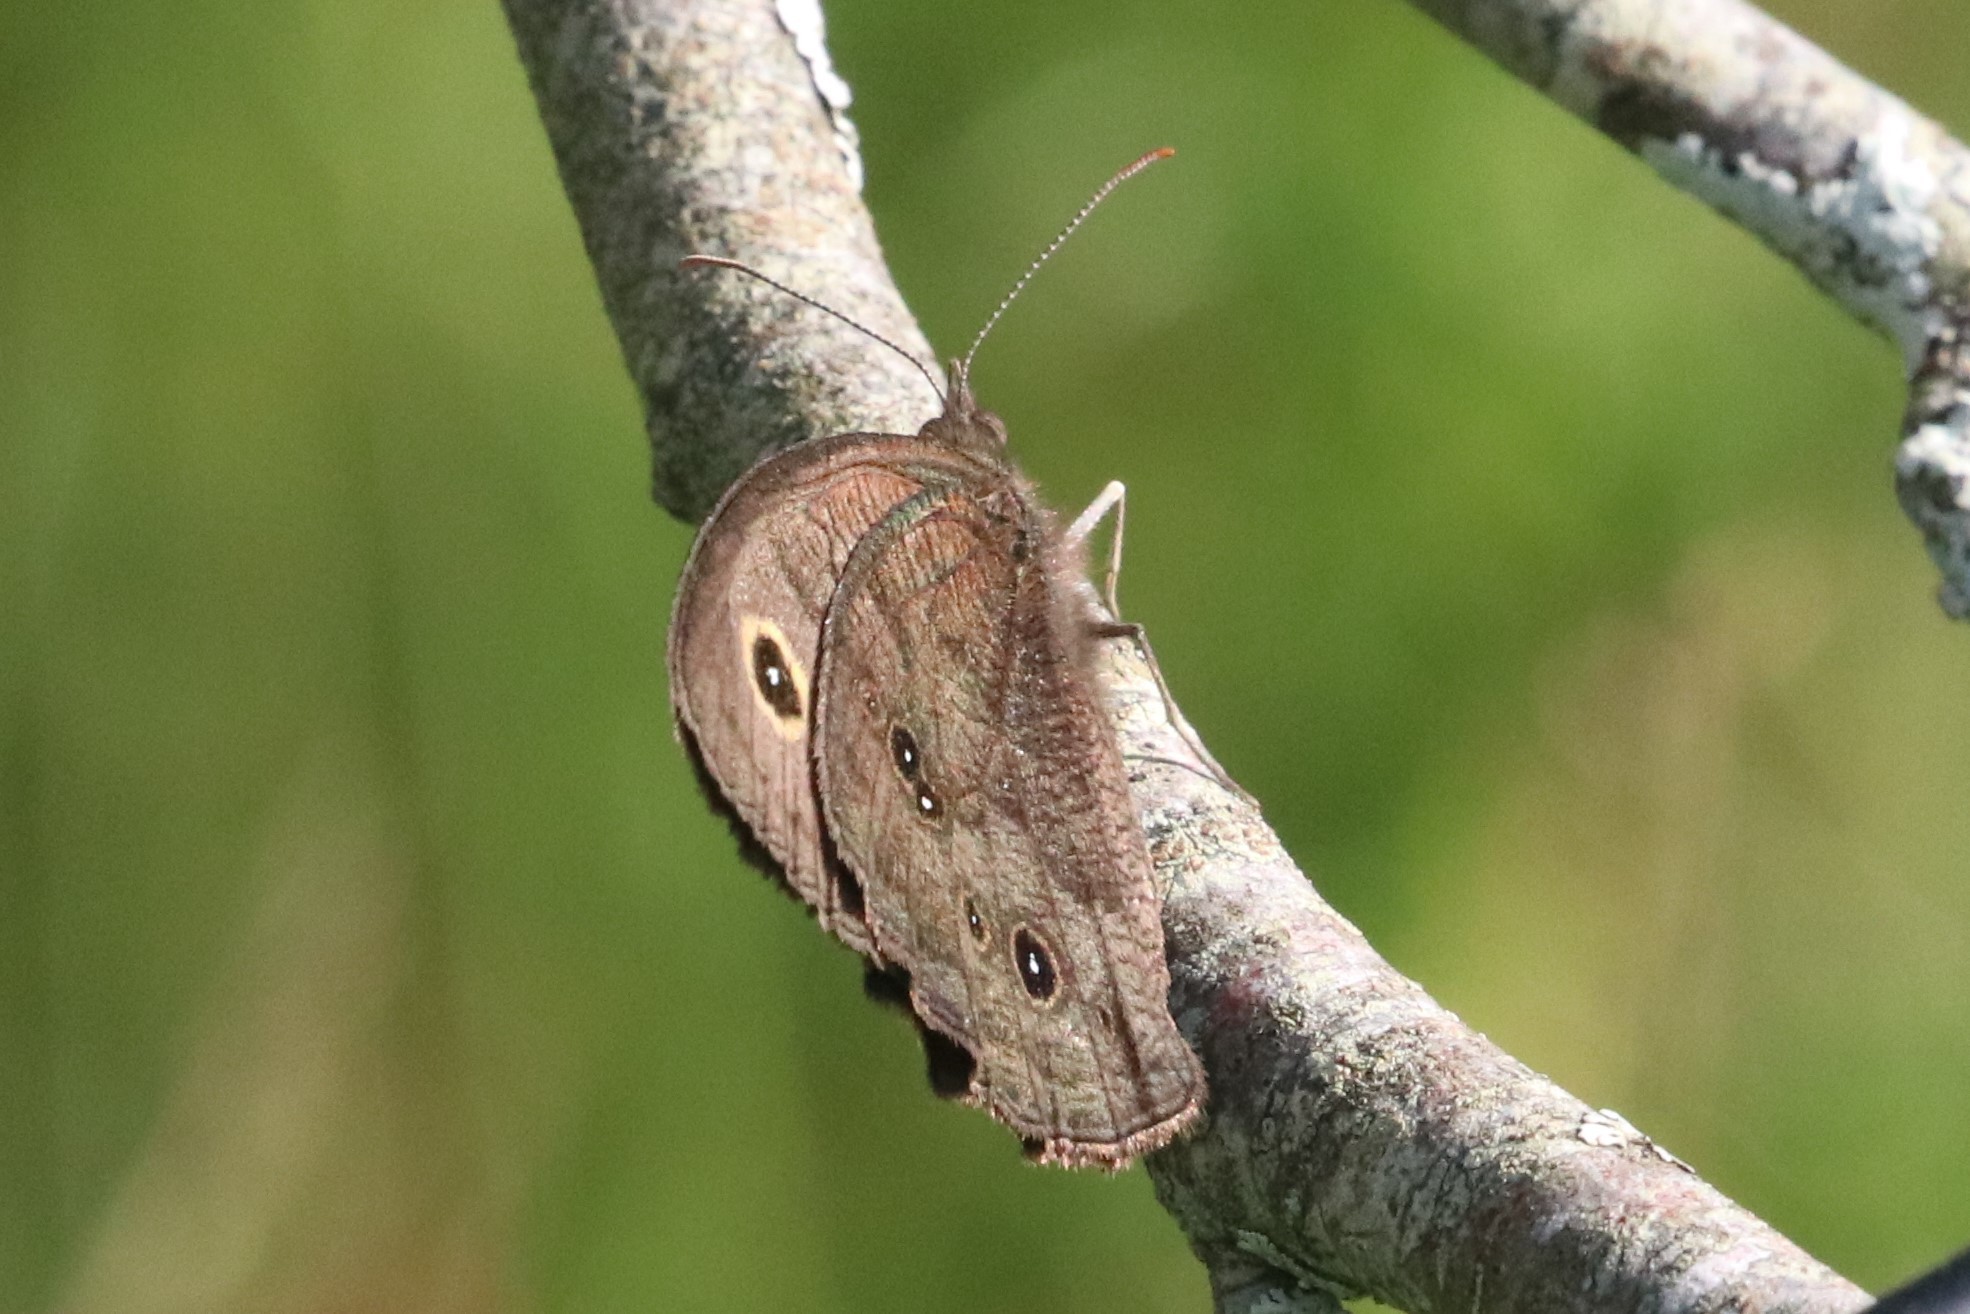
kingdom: Animalia
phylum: Arthropoda
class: Insecta
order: Lepidoptera
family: Nymphalidae
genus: Cercyonis
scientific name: Cercyonis pegala
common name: Common wood-nymph
